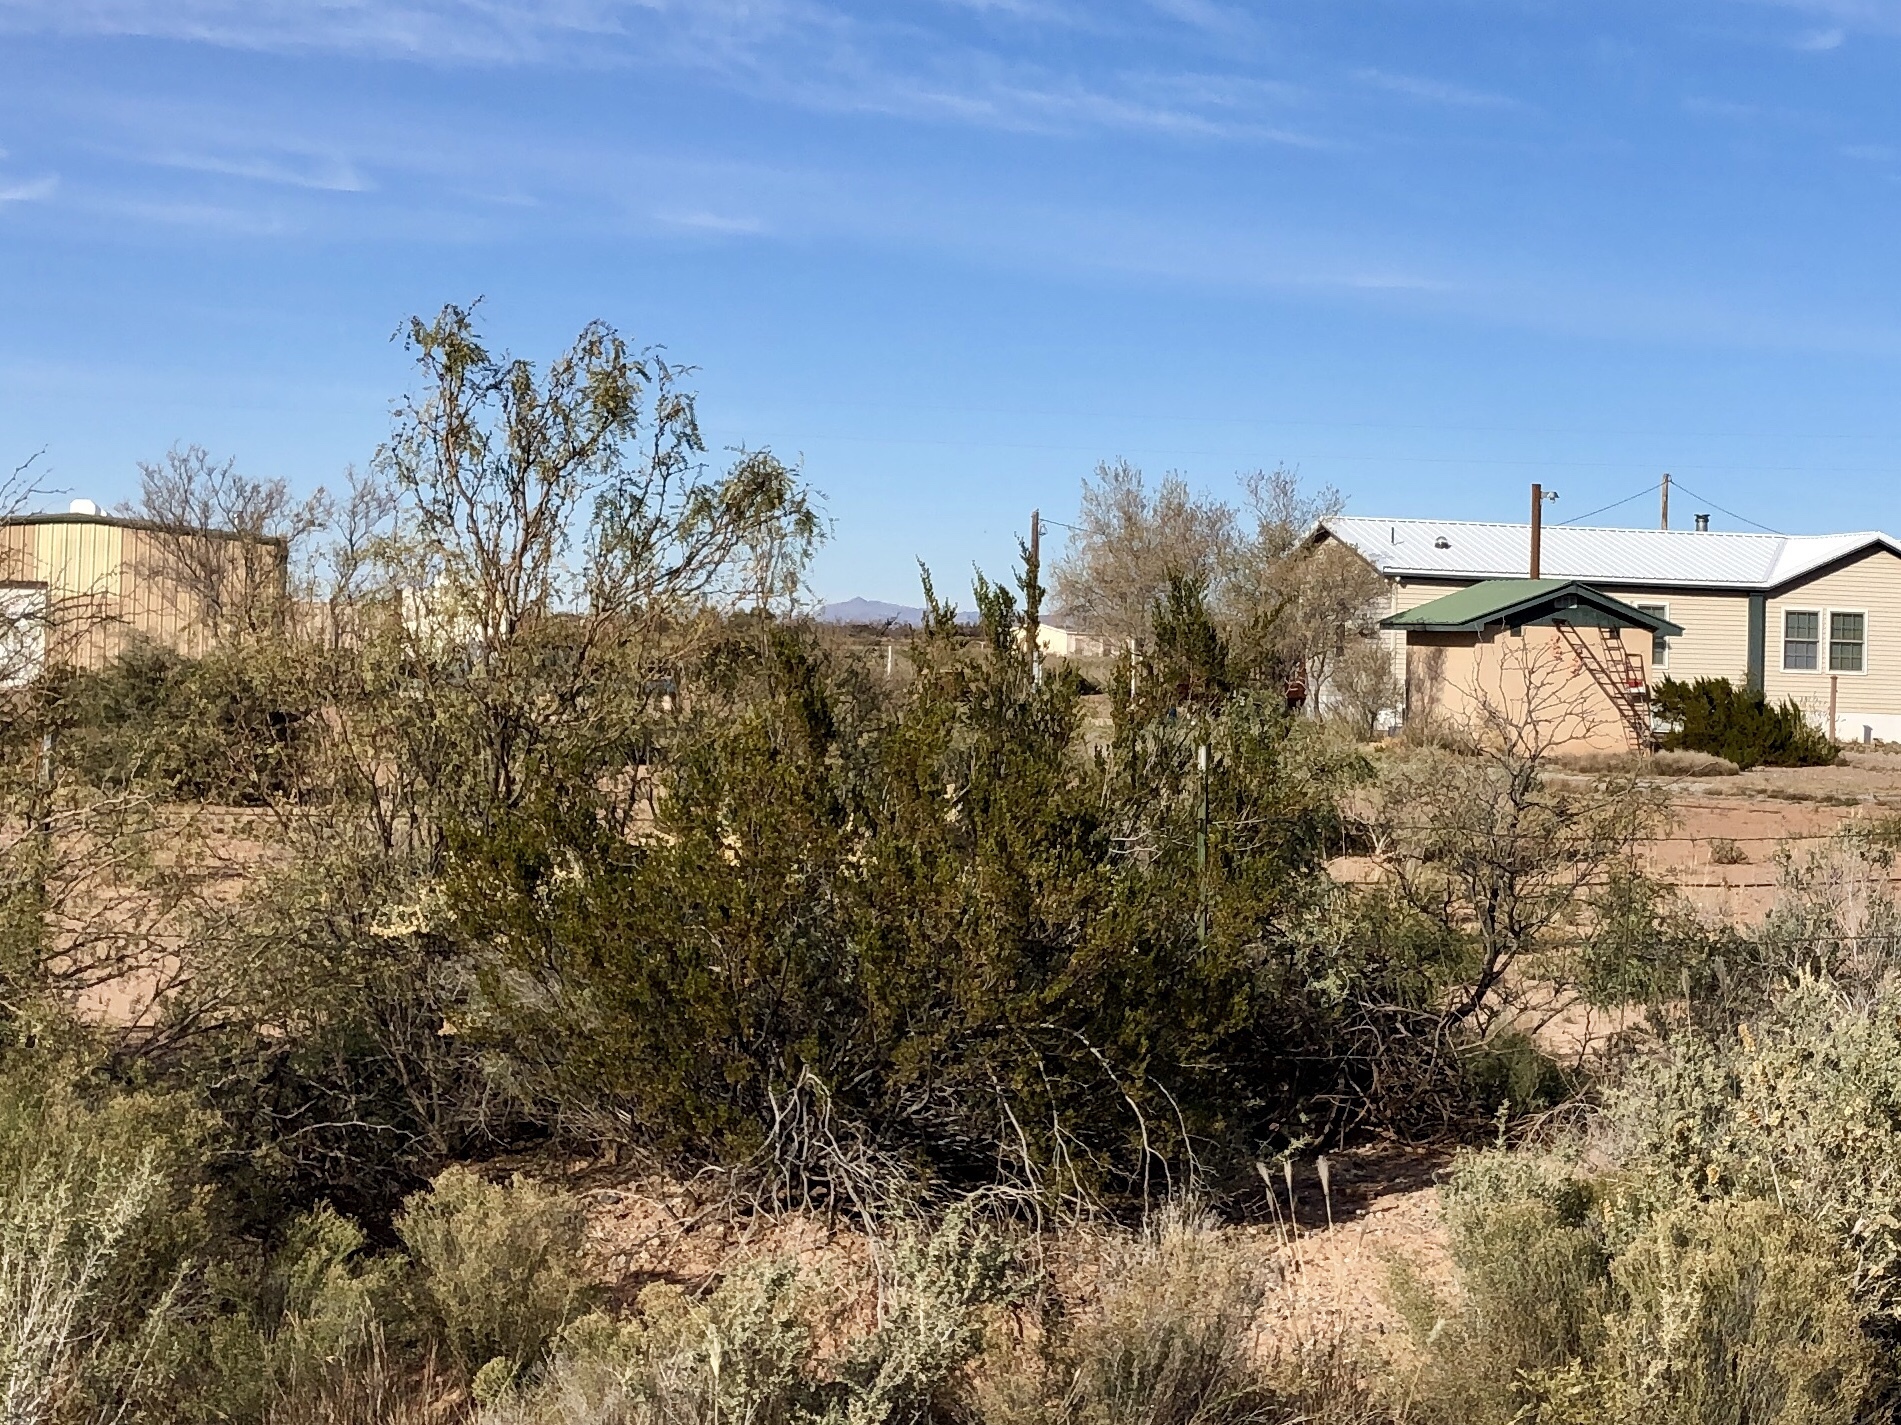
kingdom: Plantae
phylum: Tracheophyta
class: Magnoliopsida
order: Zygophyllales
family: Zygophyllaceae
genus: Larrea
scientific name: Larrea tridentata
